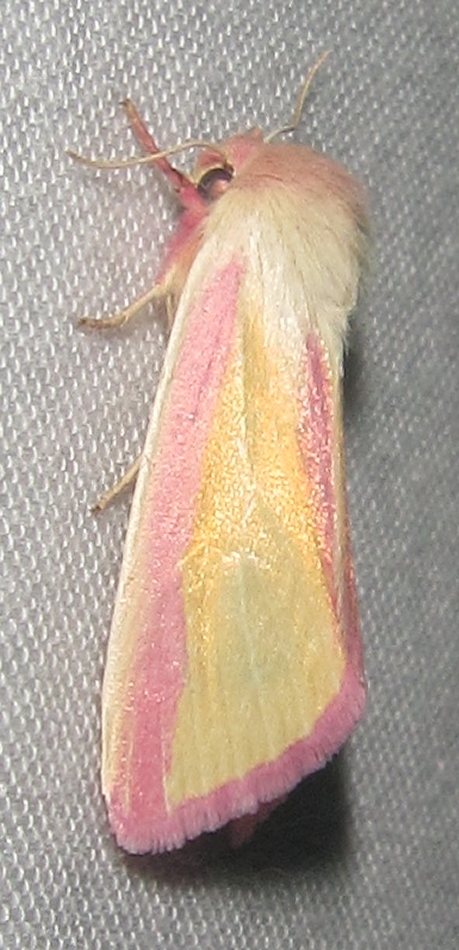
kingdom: Animalia
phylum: Arthropoda
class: Insecta
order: Lepidoptera
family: Noctuidae
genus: Heliothis
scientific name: Heliothis
